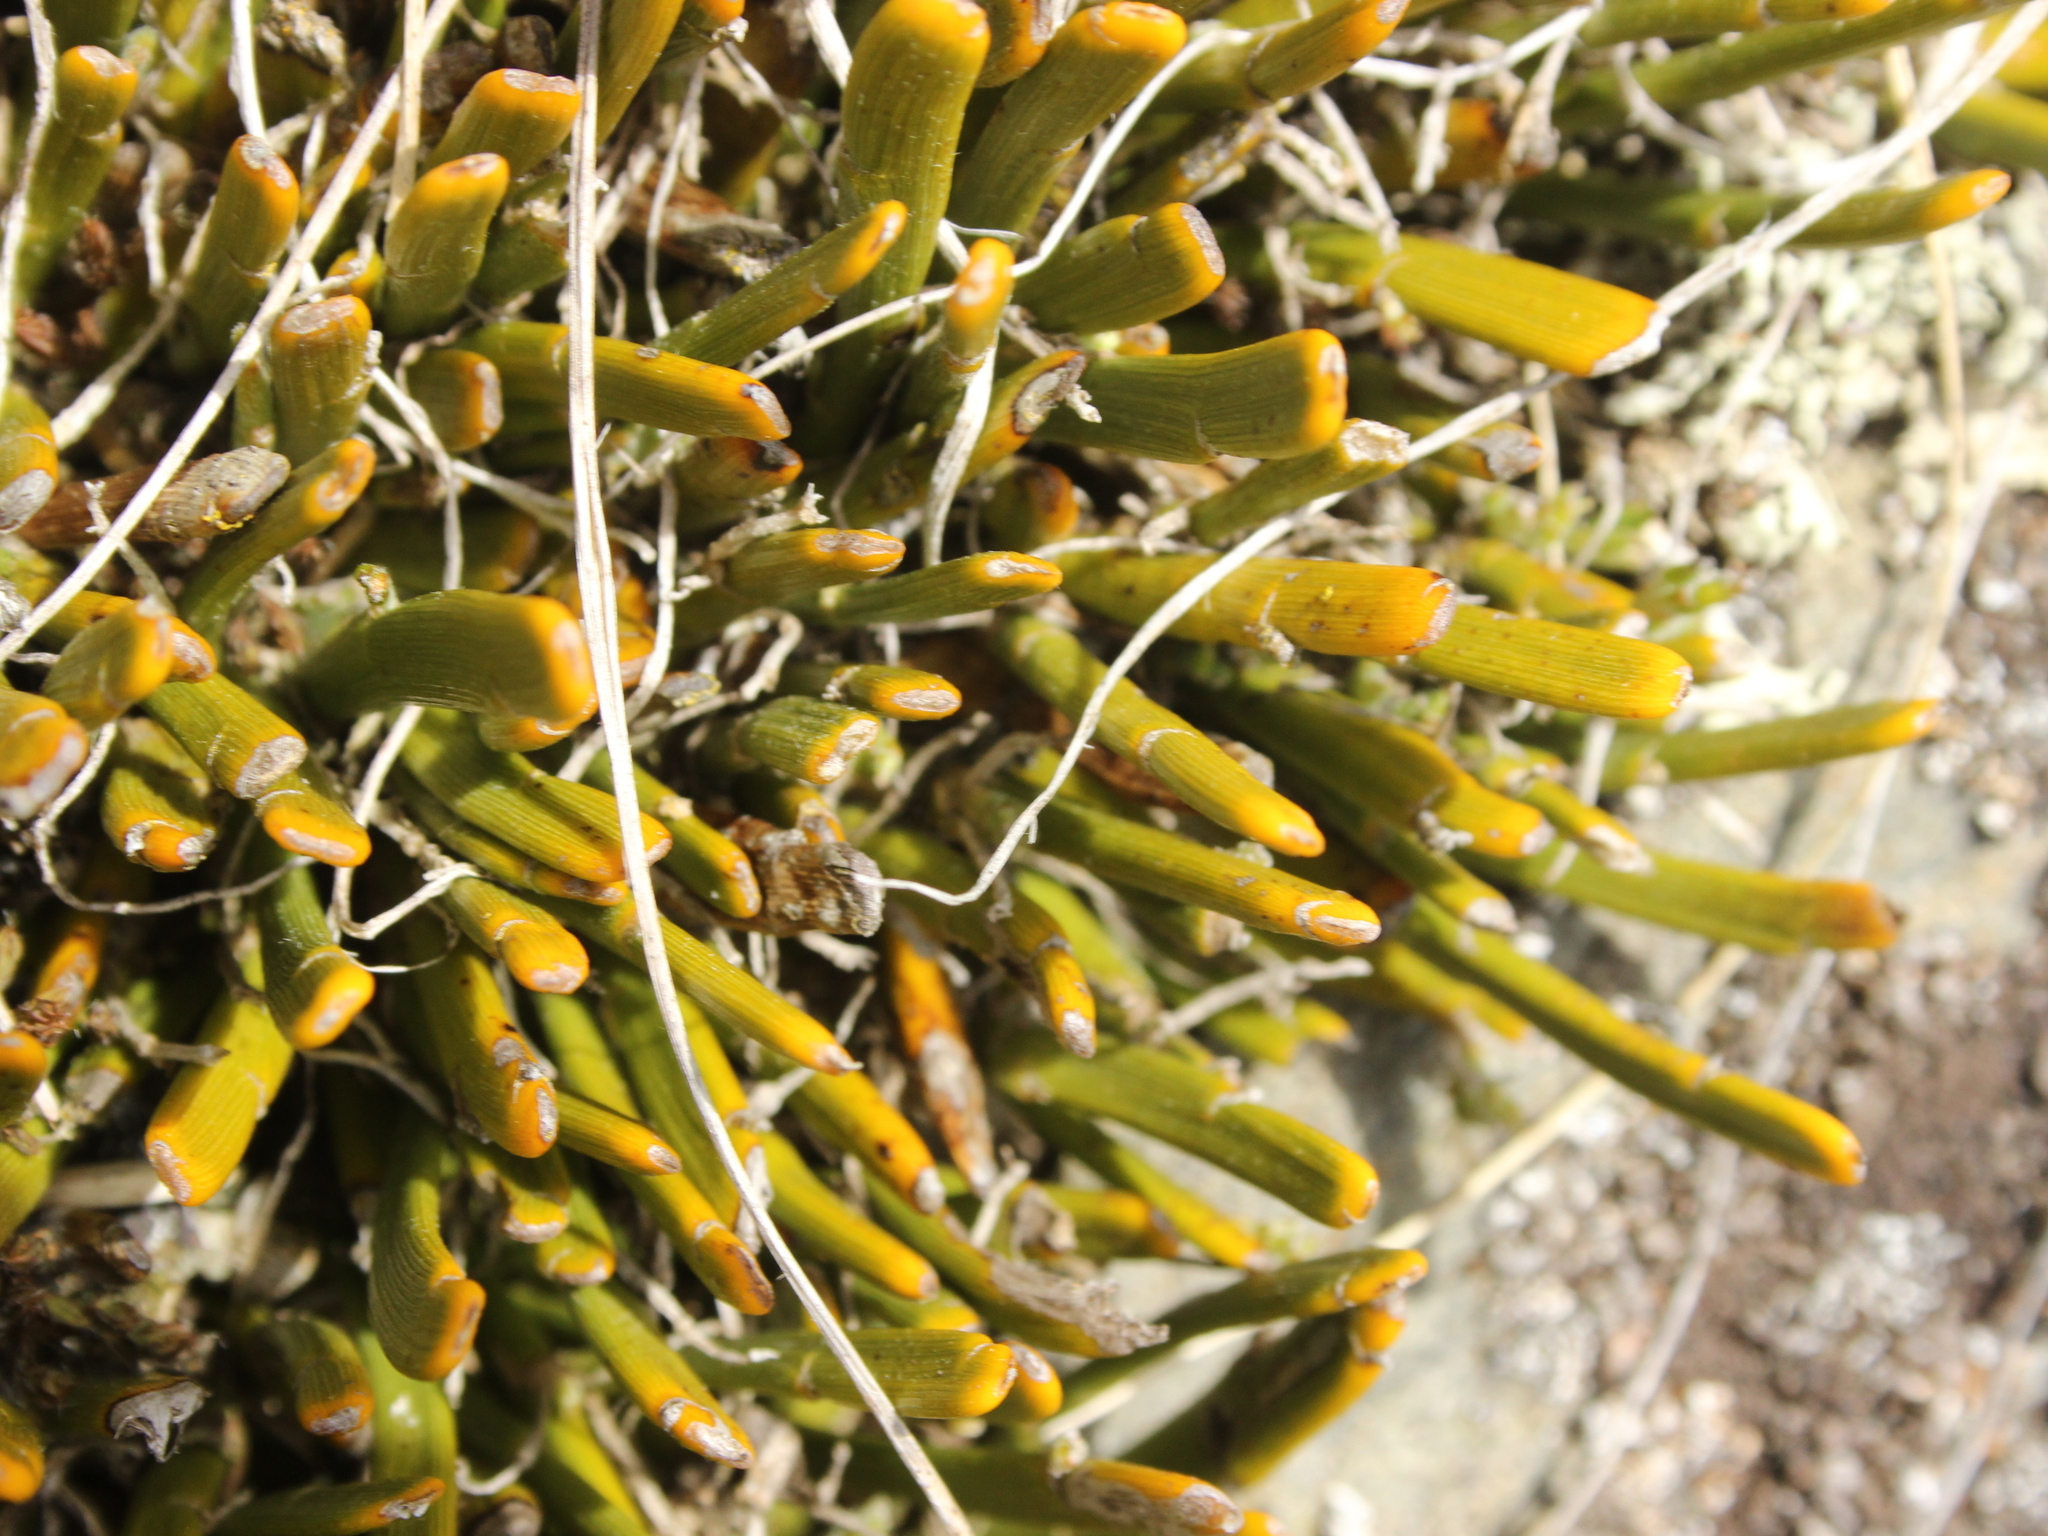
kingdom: Plantae
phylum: Tracheophyta
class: Magnoliopsida
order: Fabales
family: Fabaceae
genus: Carmichaelia
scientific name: Carmichaelia vexillata
